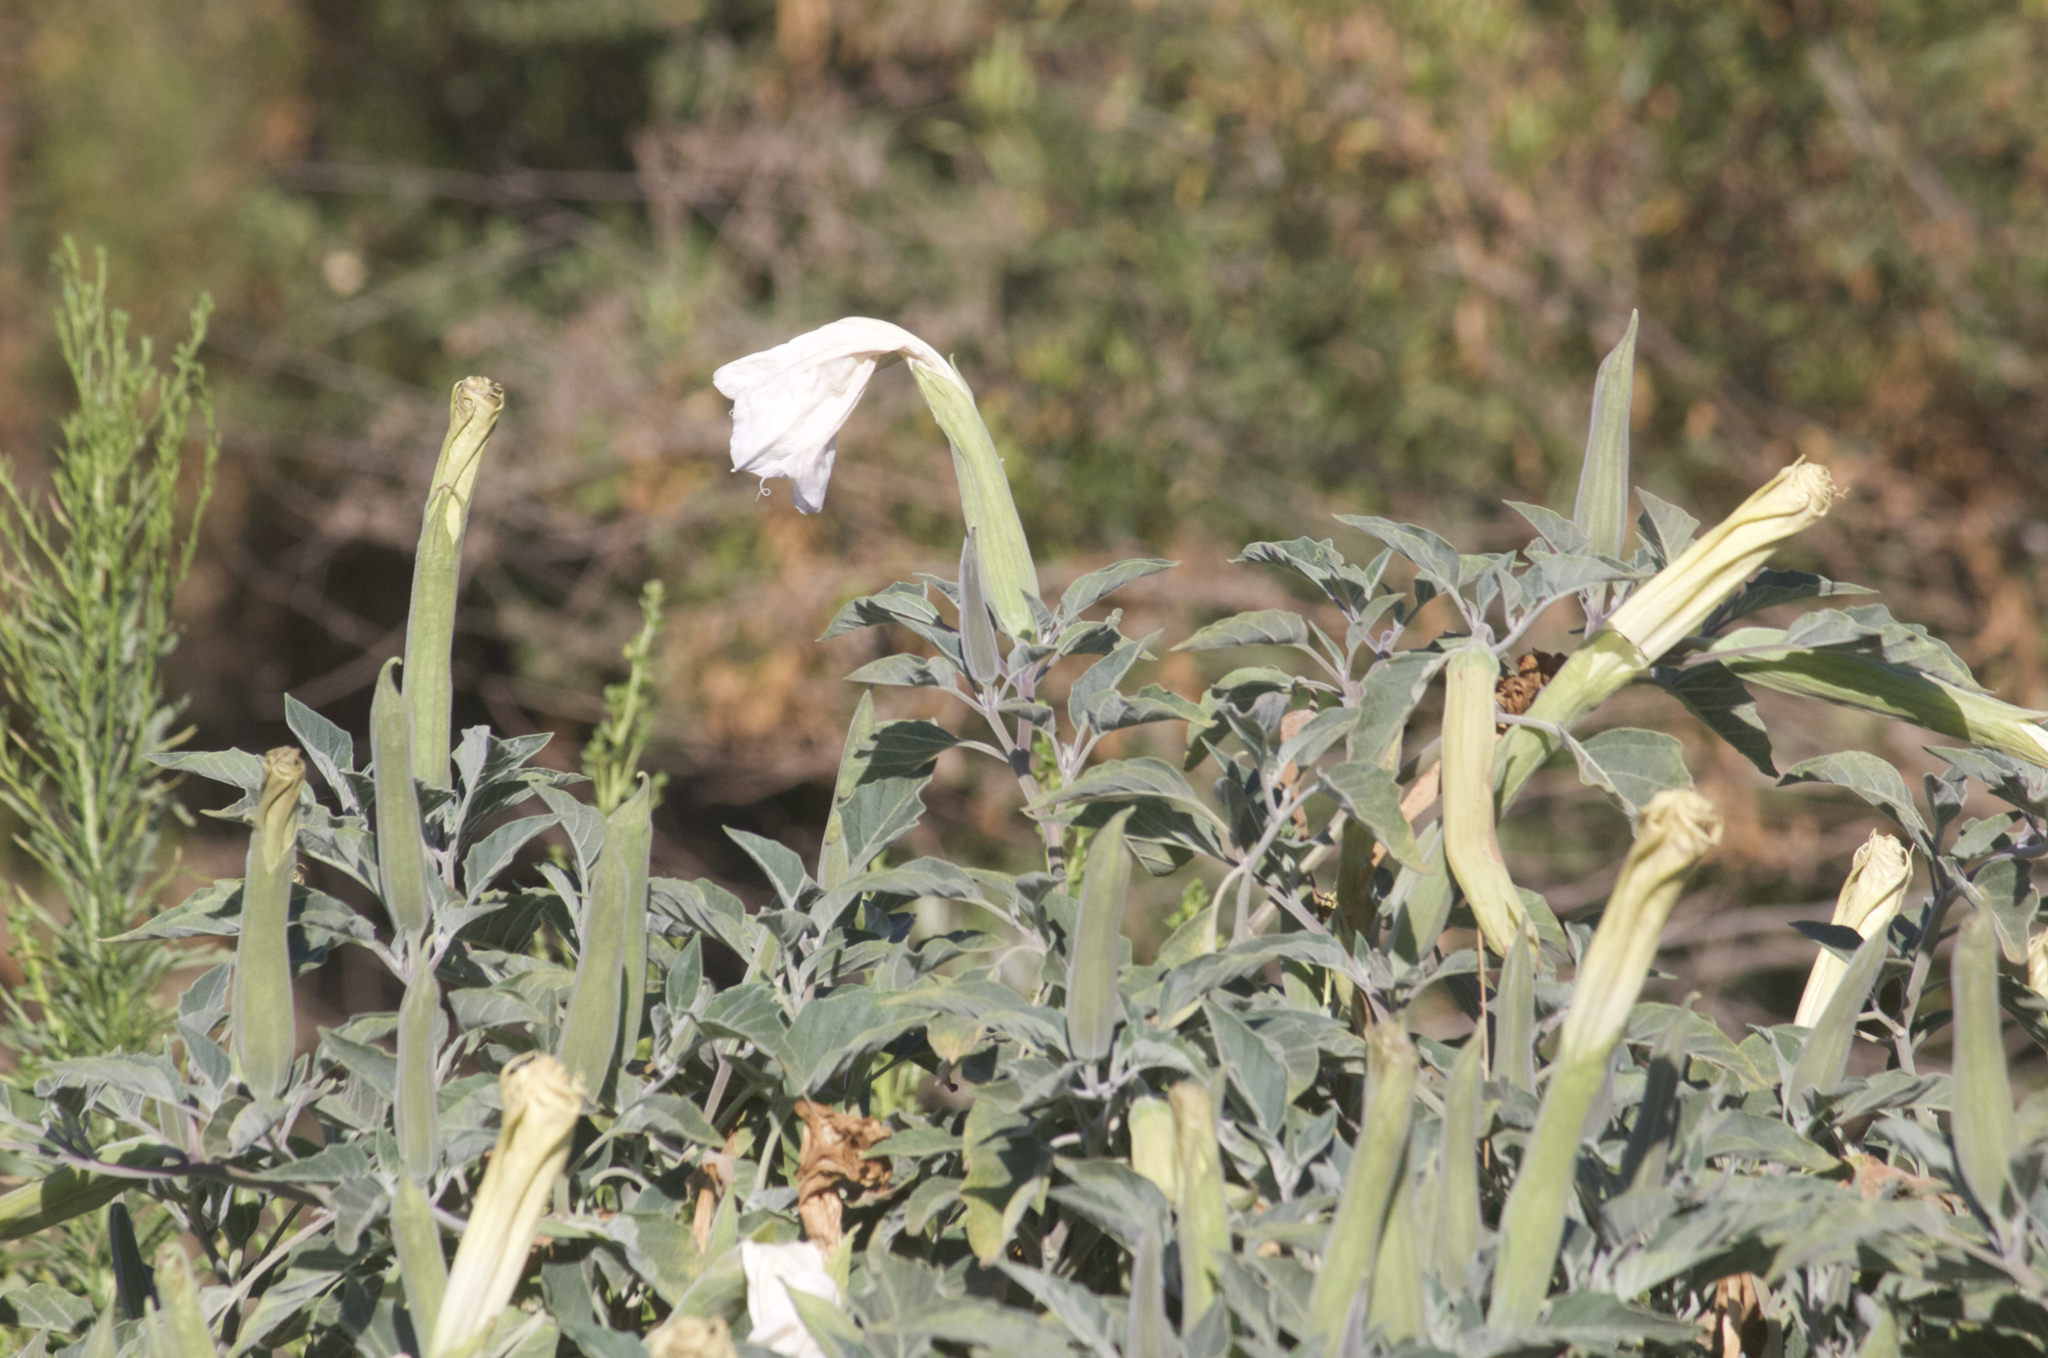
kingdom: Plantae
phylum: Tracheophyta
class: Magnoliopsida
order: Solanales
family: Solanaceae
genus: Datura
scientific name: Datura wrightii
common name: Sacred thorn-apple
